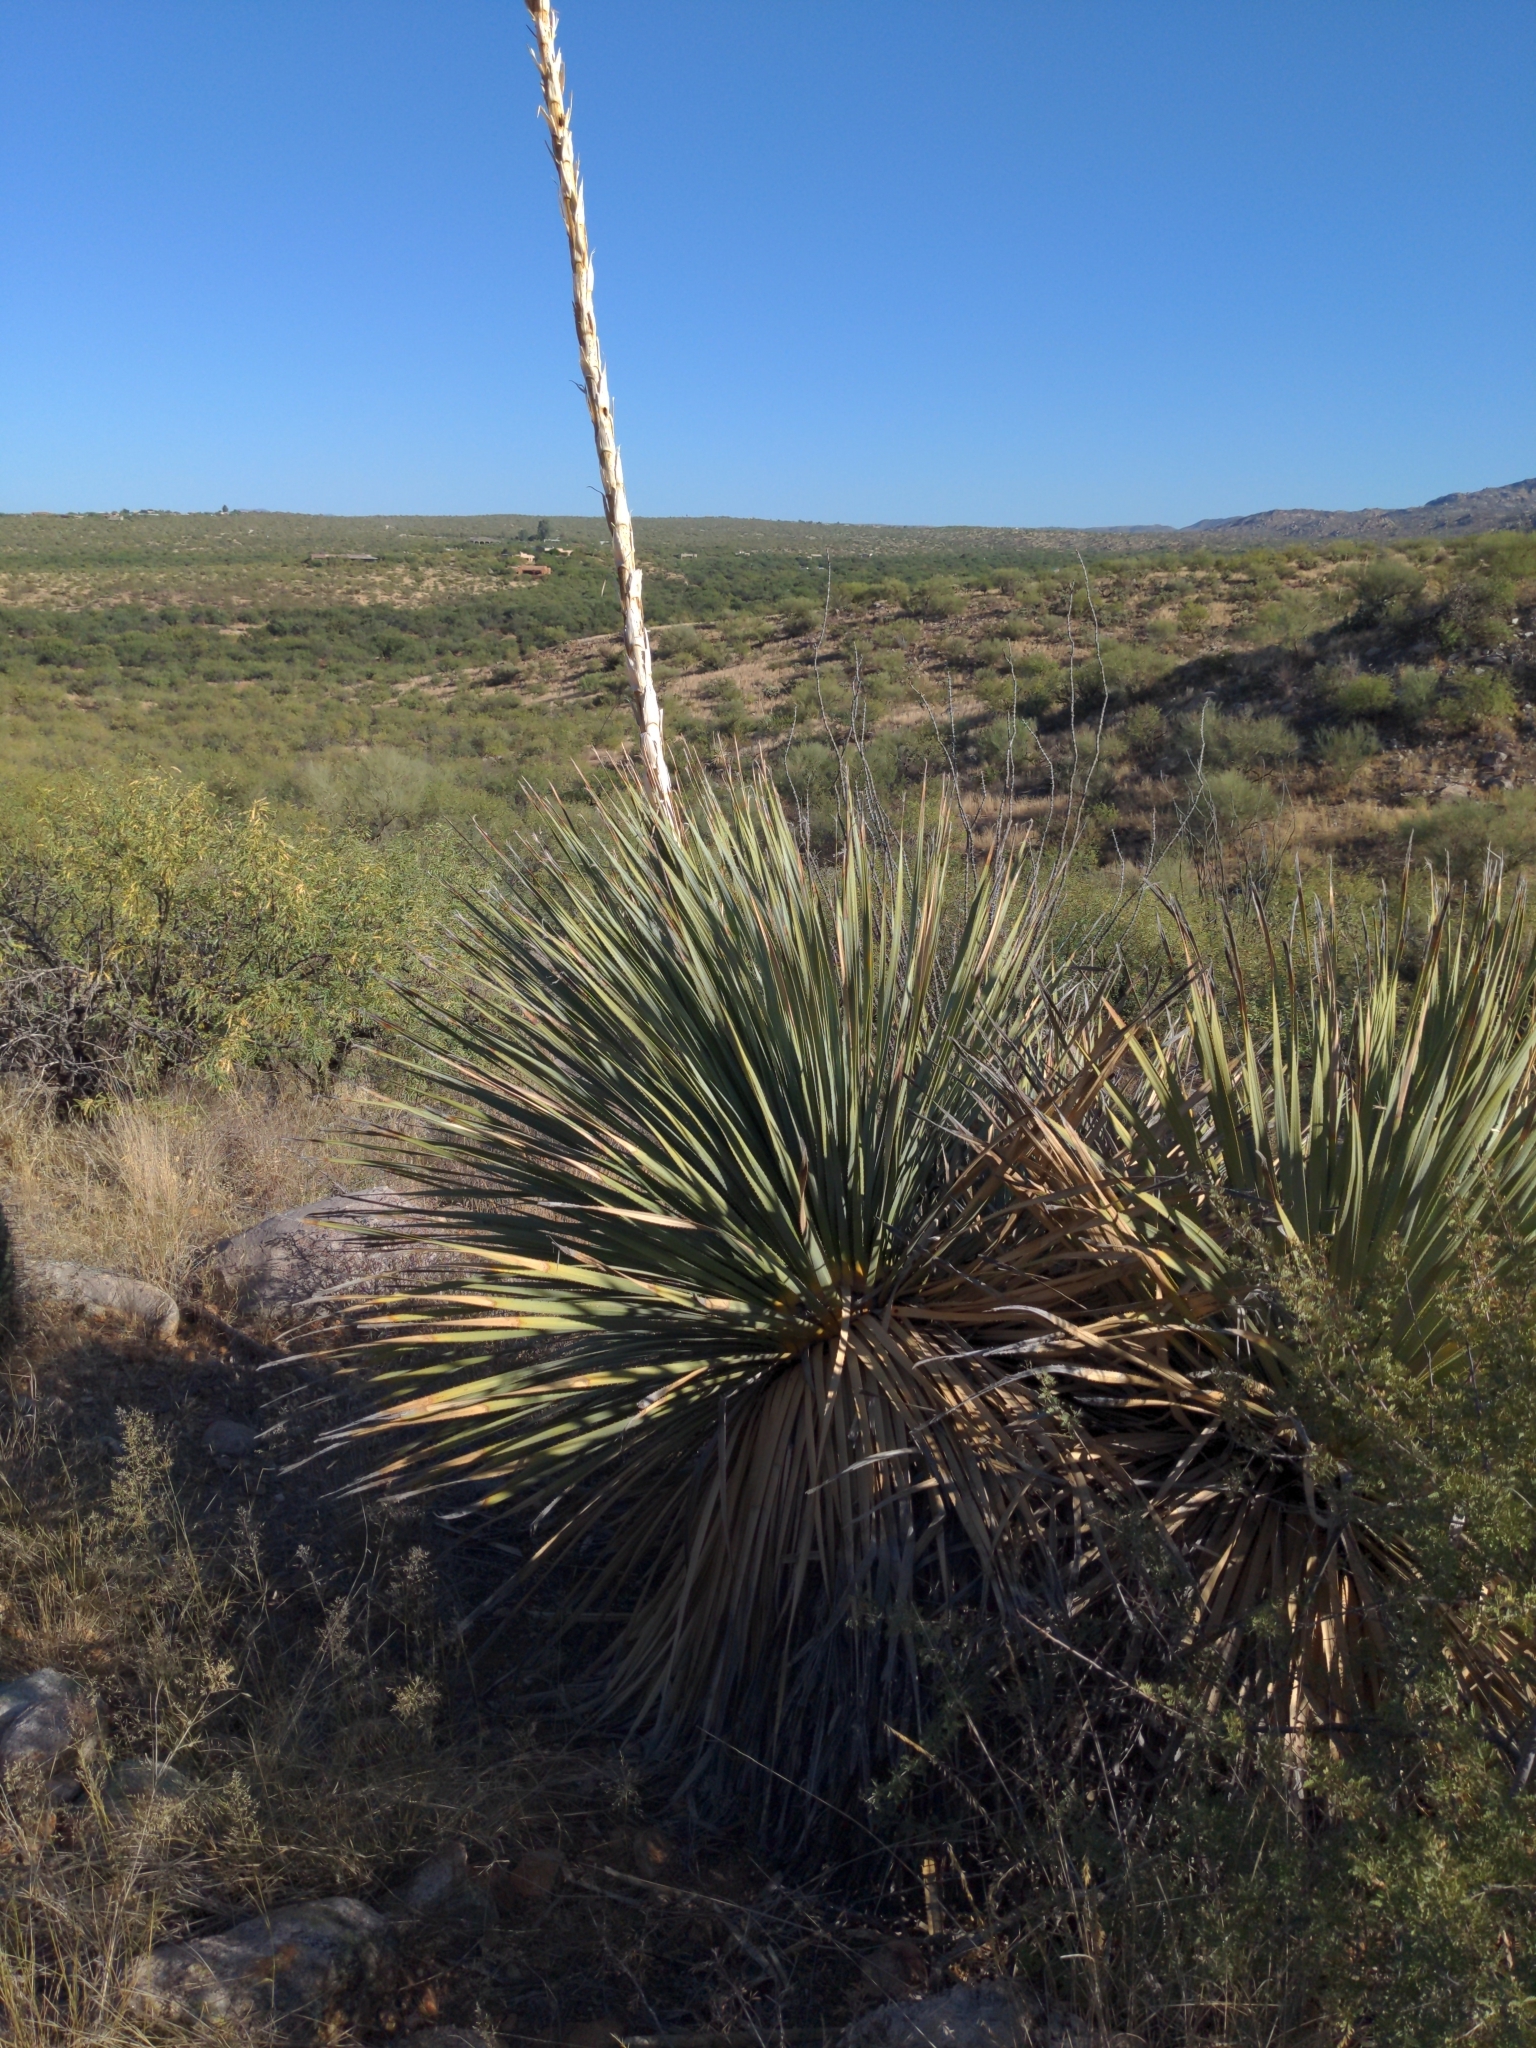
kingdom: Plantae
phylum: Tracheophyta
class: Liliopsida
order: Asparagales
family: Asparagaceae
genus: Dasylirion
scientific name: Dasylirion wheeleri
